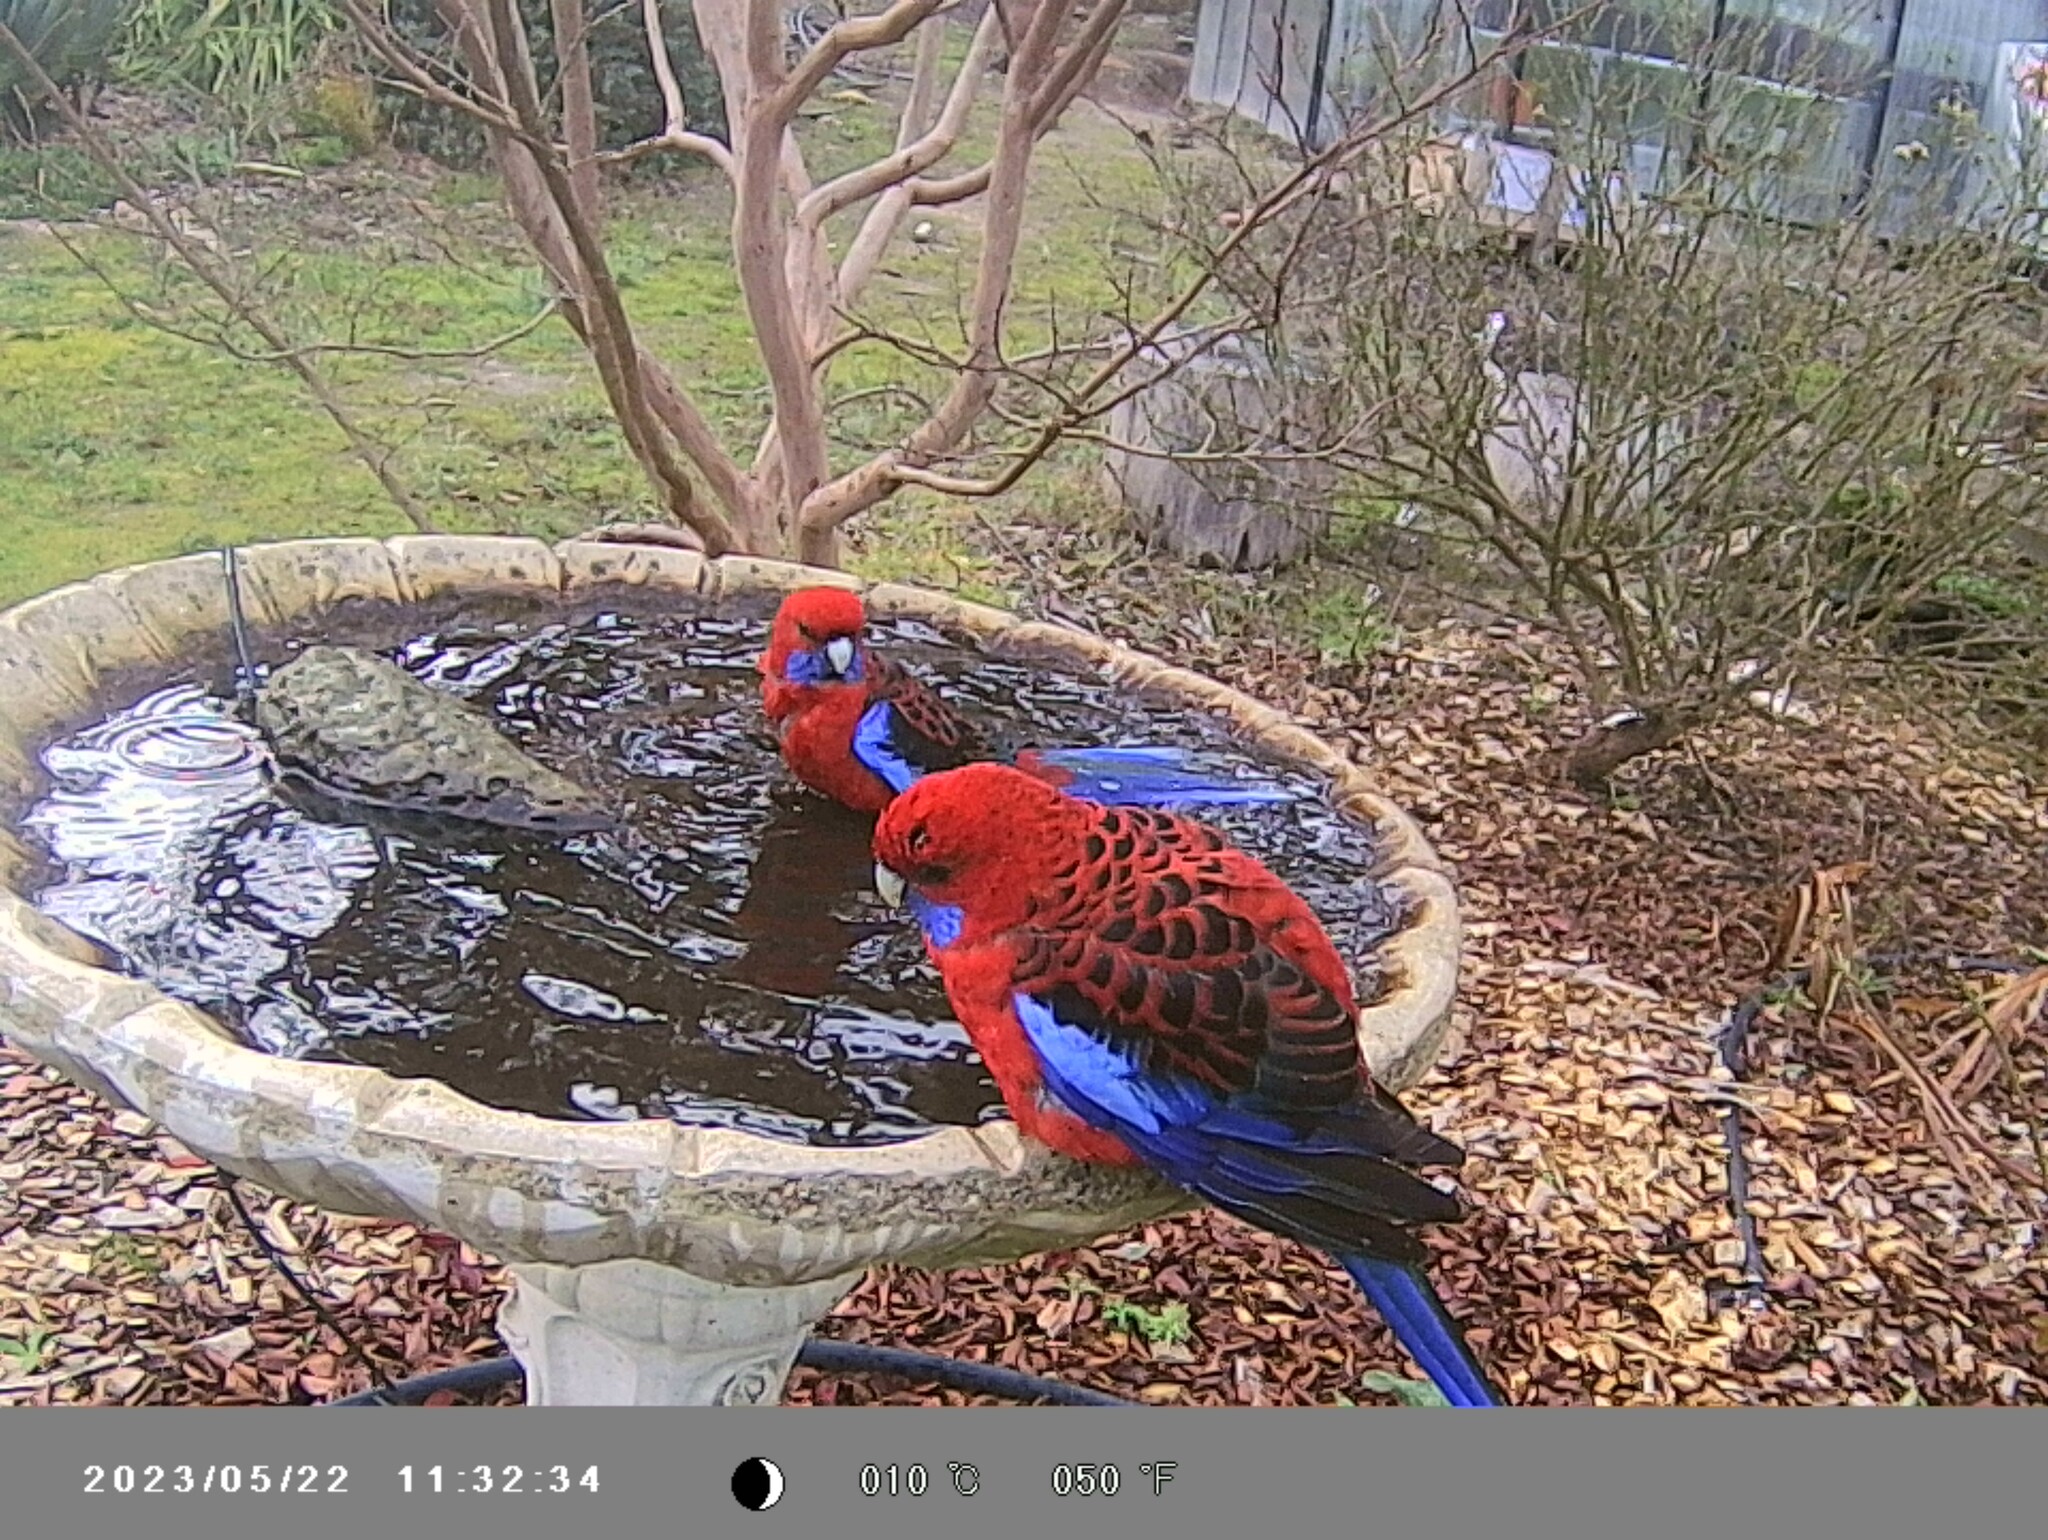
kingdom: Animalia
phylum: Chordata
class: Aves
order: Psittaciformes
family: Psittacidae
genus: Platycercus
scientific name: Platycercus elegans
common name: Crimson rosella
